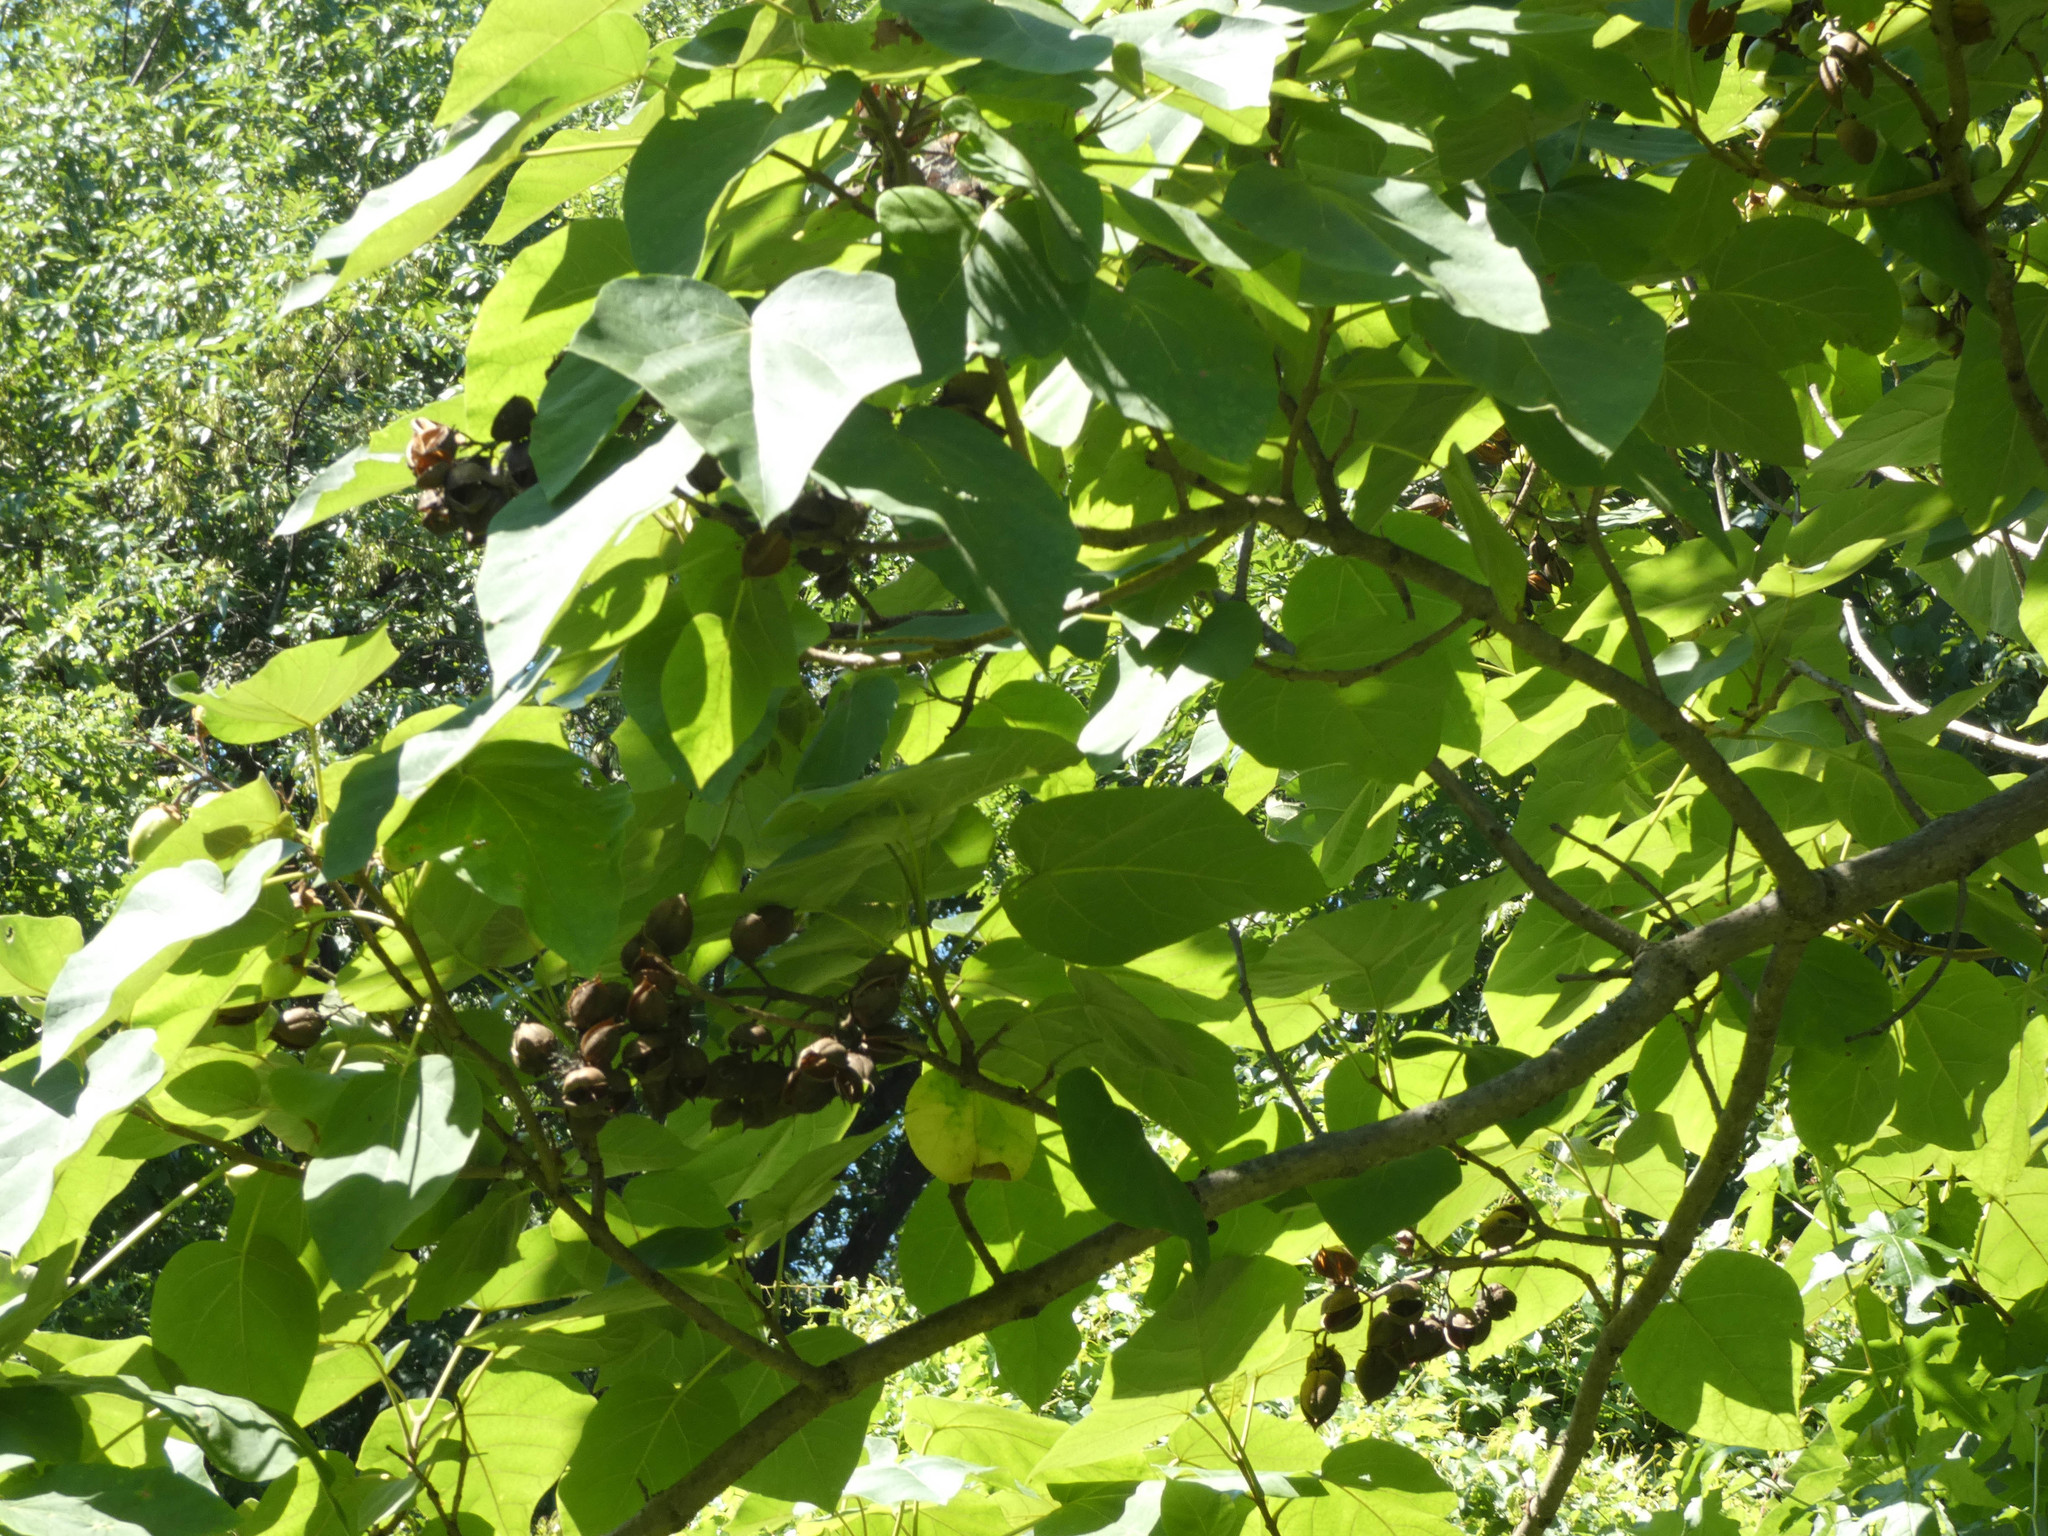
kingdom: Plantae
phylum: Tracheophyta
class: Magnoliopsida
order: Lamiales
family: Paulowniaceae
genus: Paulownia
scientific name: Paulownia tomentosa
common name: Foxglove-tree
